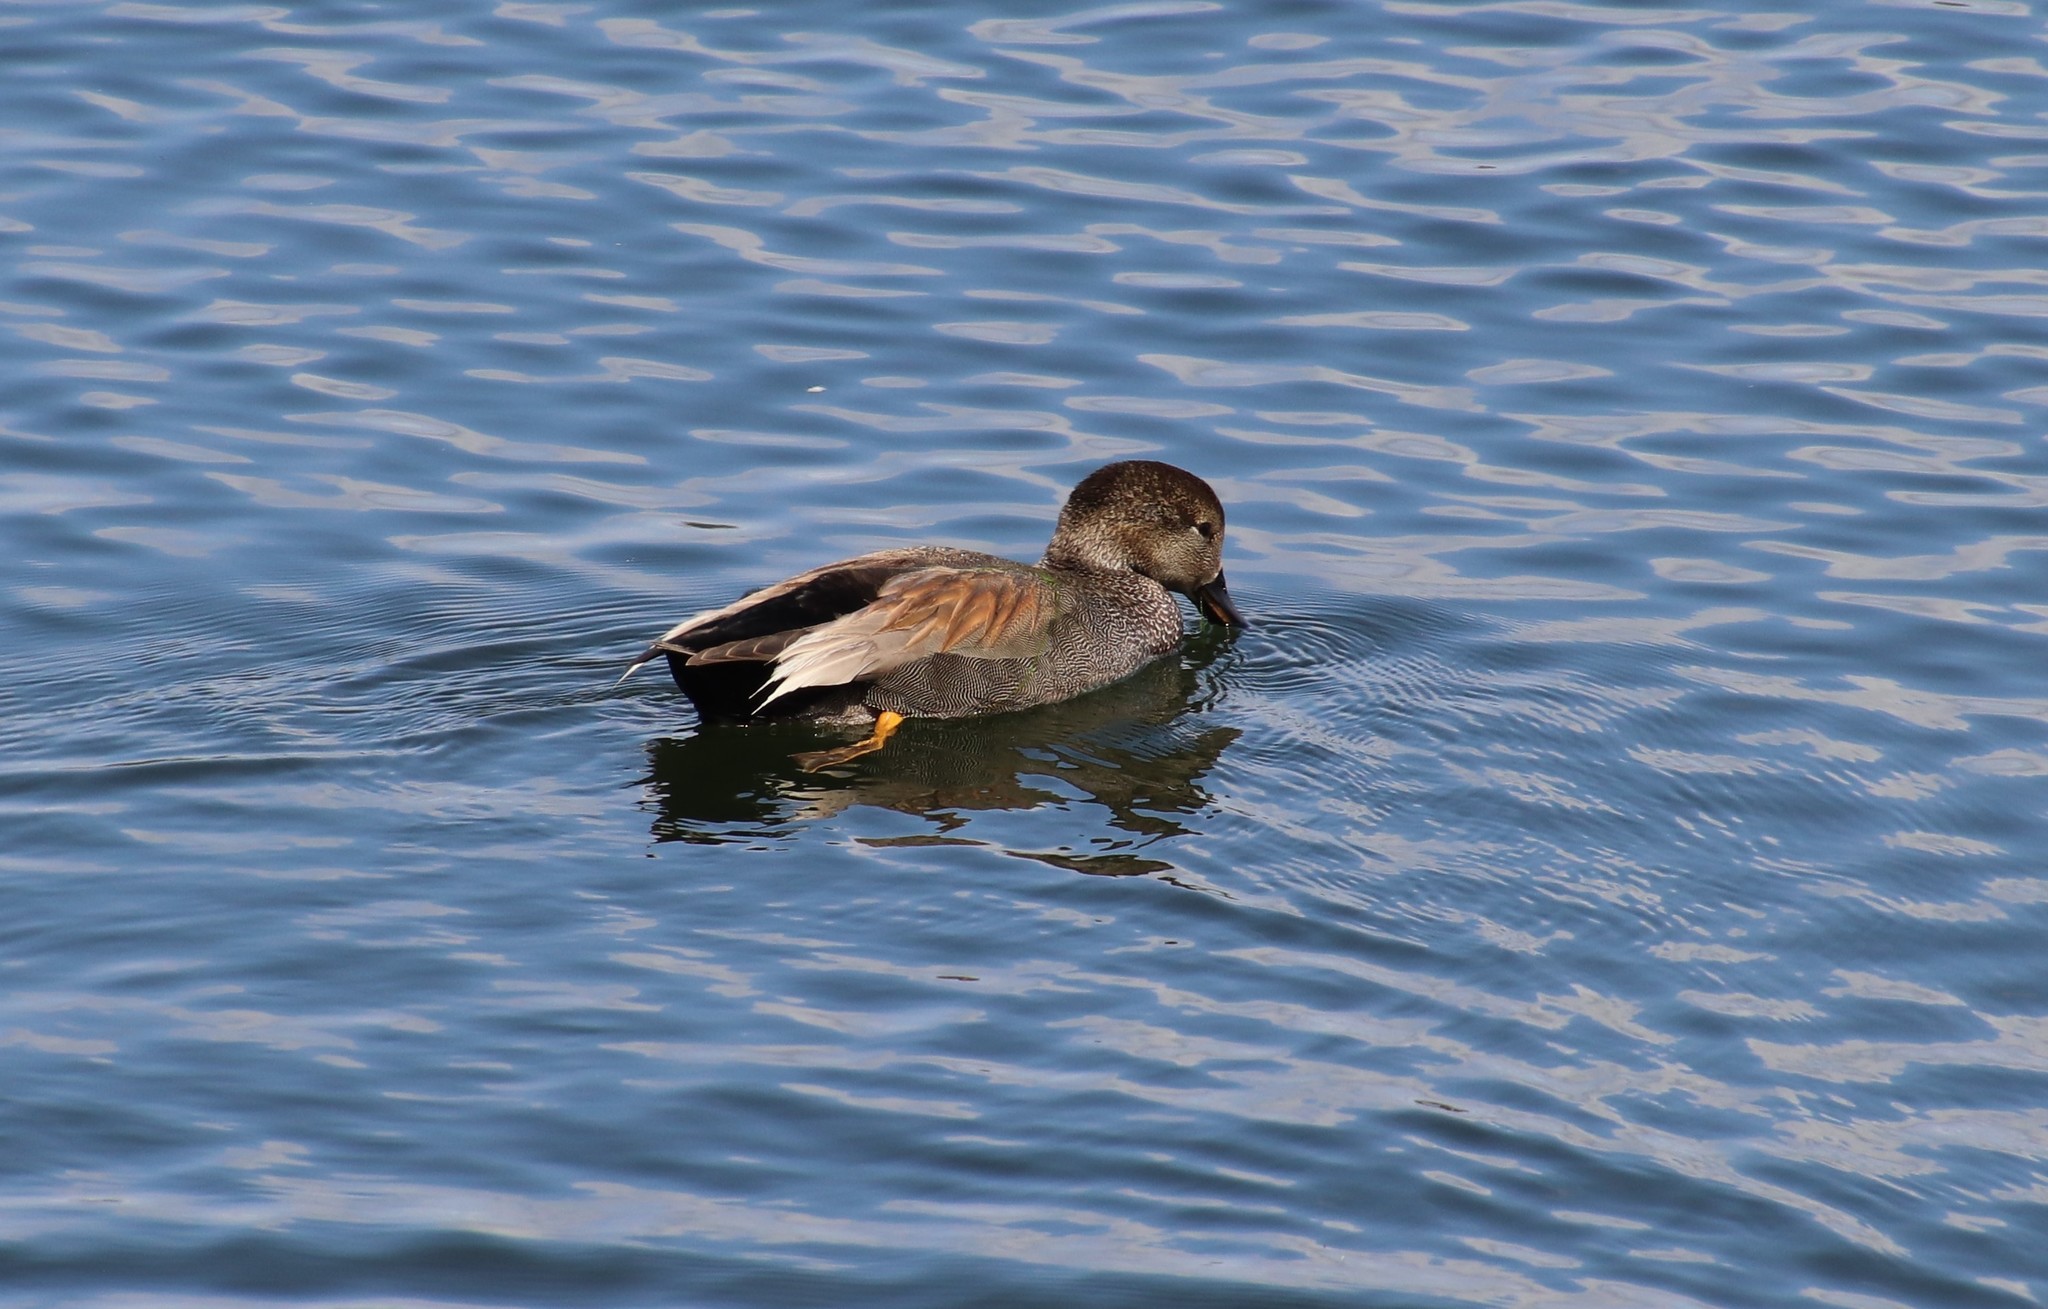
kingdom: Animalia
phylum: Chordata
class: Aves
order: Anseriformes
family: Anatidae
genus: Mareca
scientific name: Mareca strepera
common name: Gadwall
